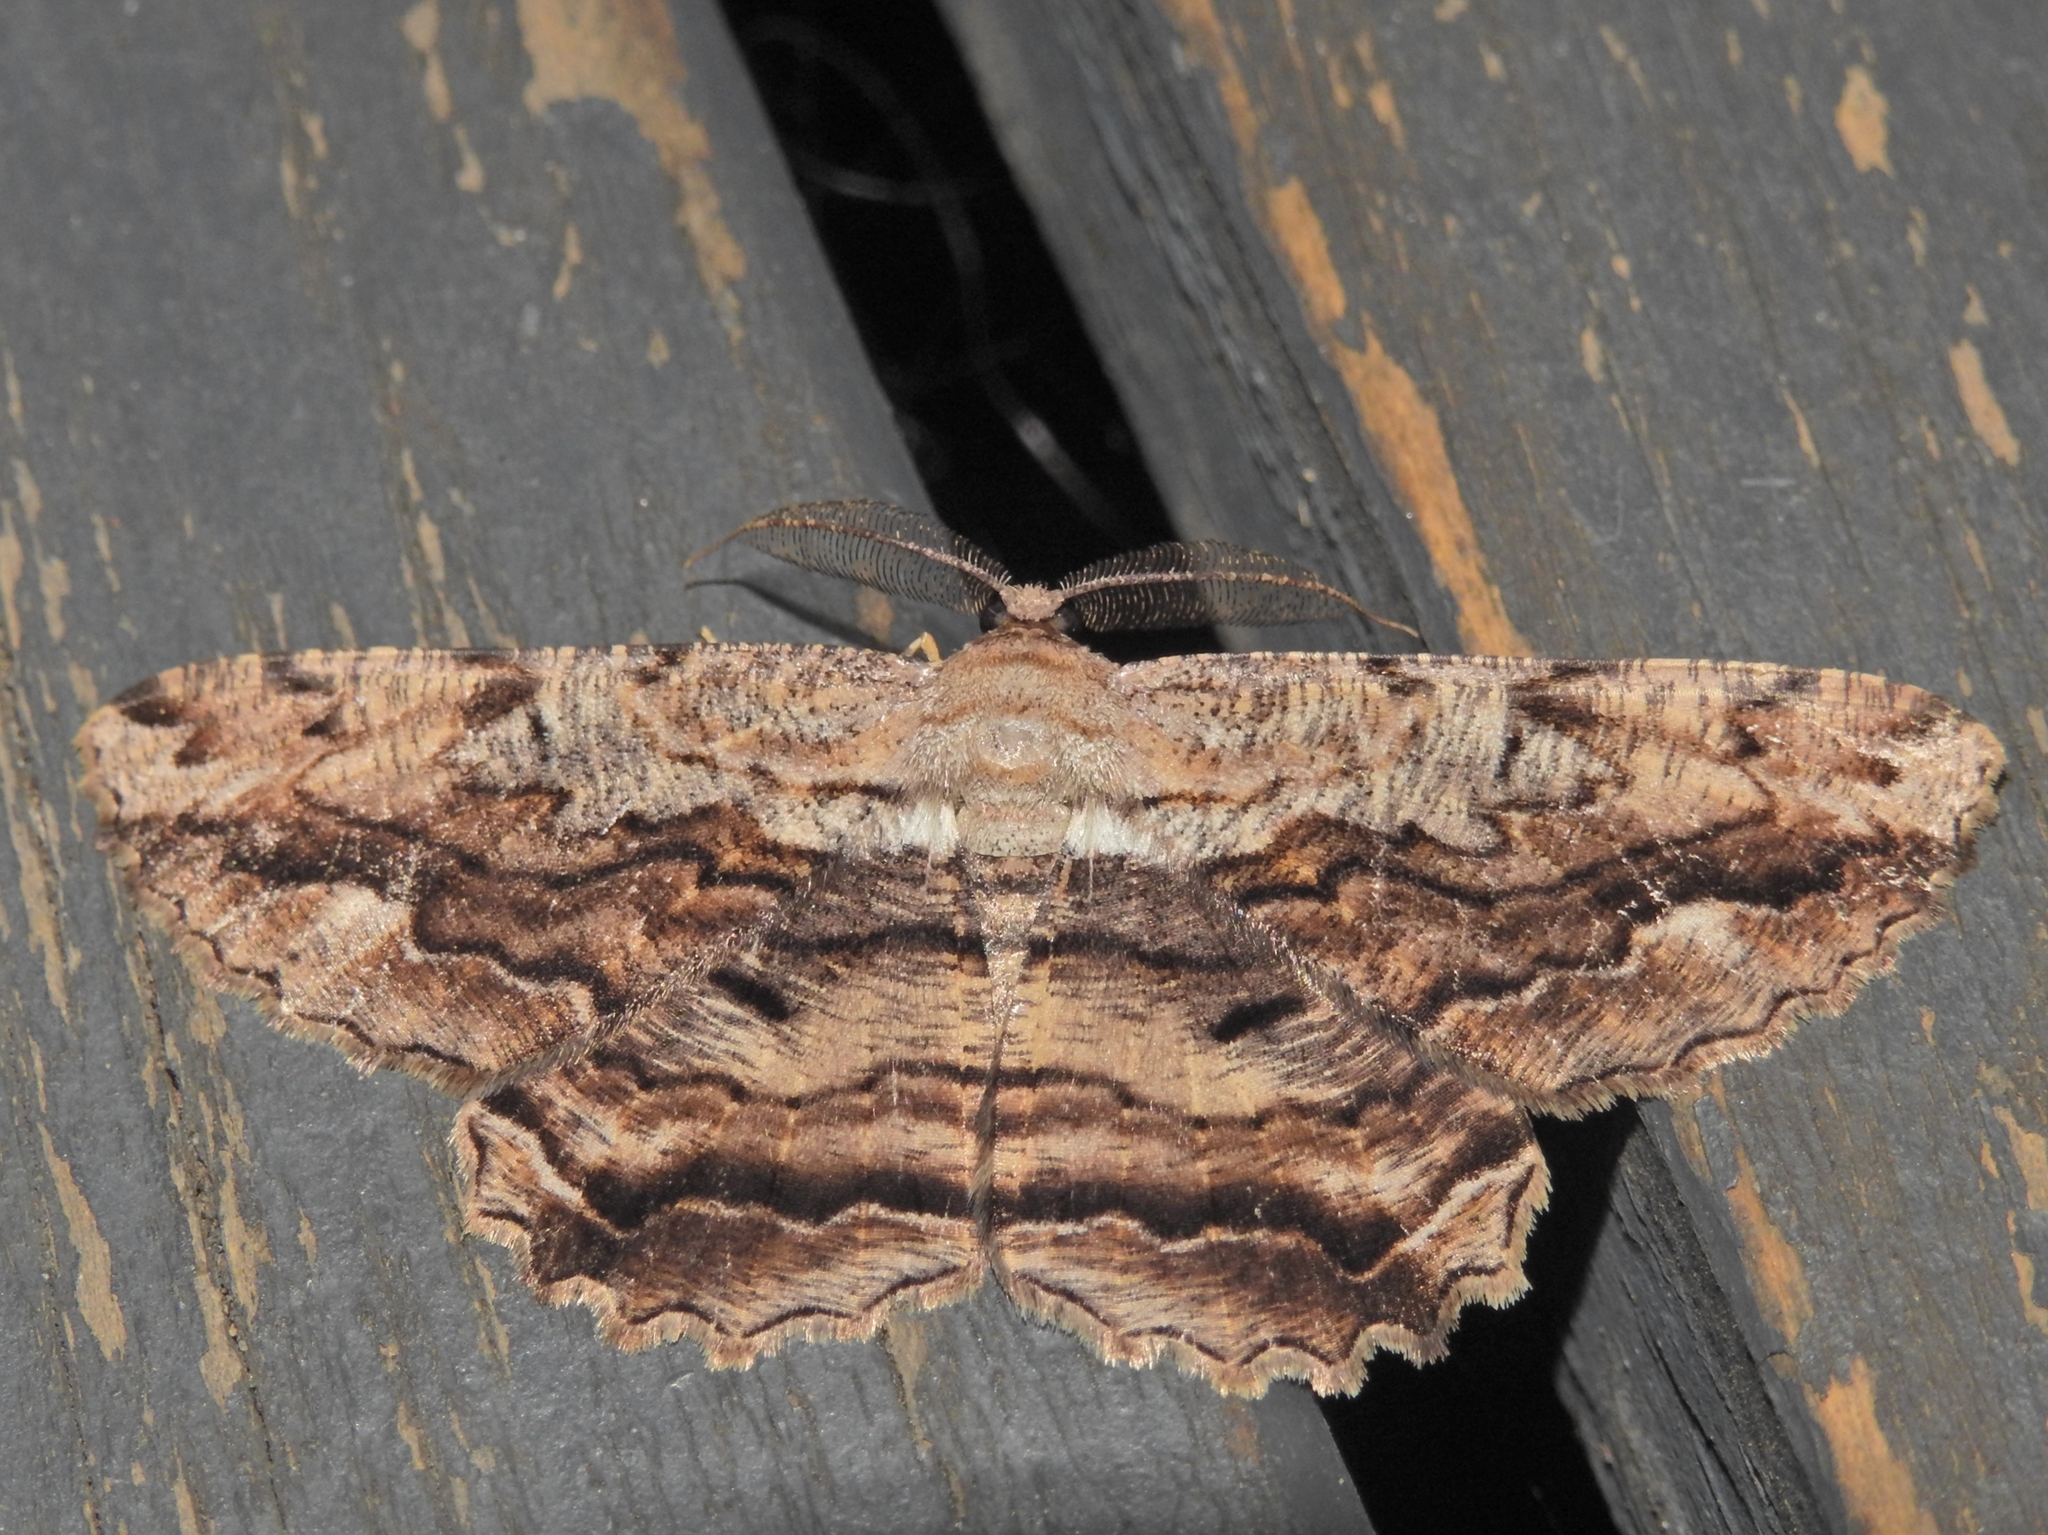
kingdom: Animalia
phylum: Arthropoda
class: Insecta
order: Lepidoptera
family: Geometridae
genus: Scioglyptis
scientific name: Scioglyptis lyciaria
